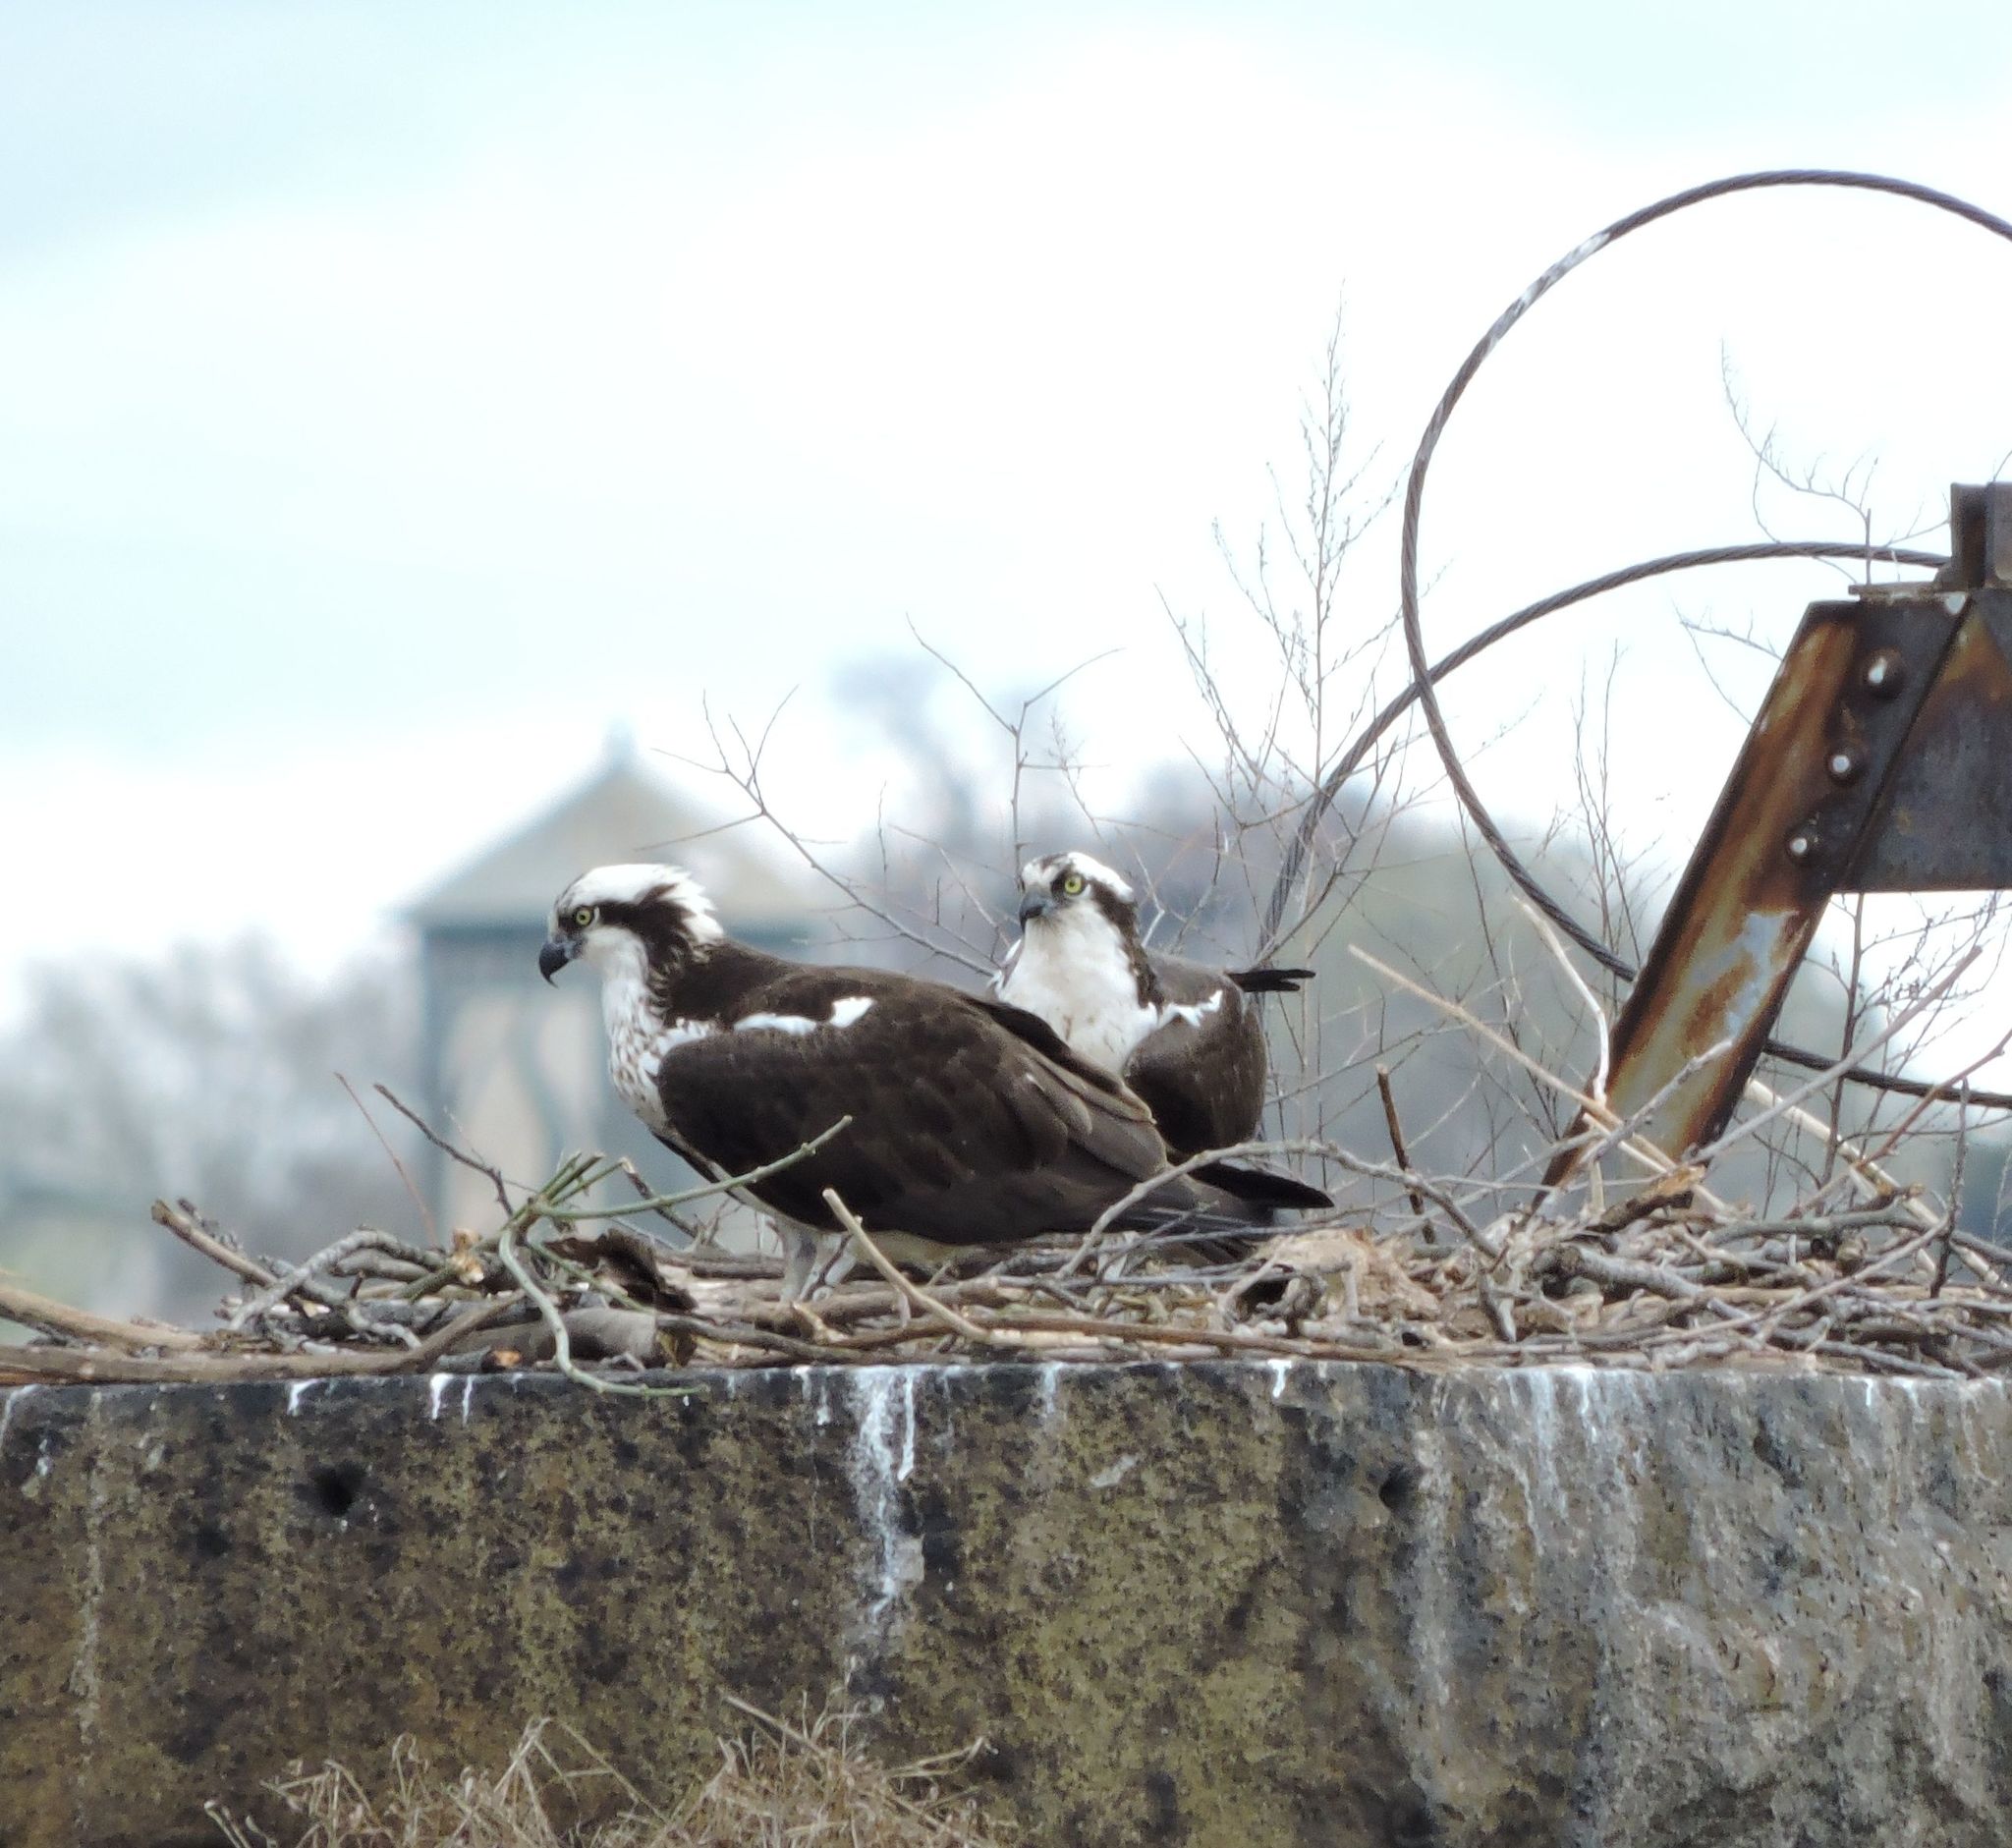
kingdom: Animalia
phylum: Chordata
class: Aves
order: Accipitriformes
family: Pandionidae
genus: Pandion
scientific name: Pandion haliaetus
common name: Osprey
